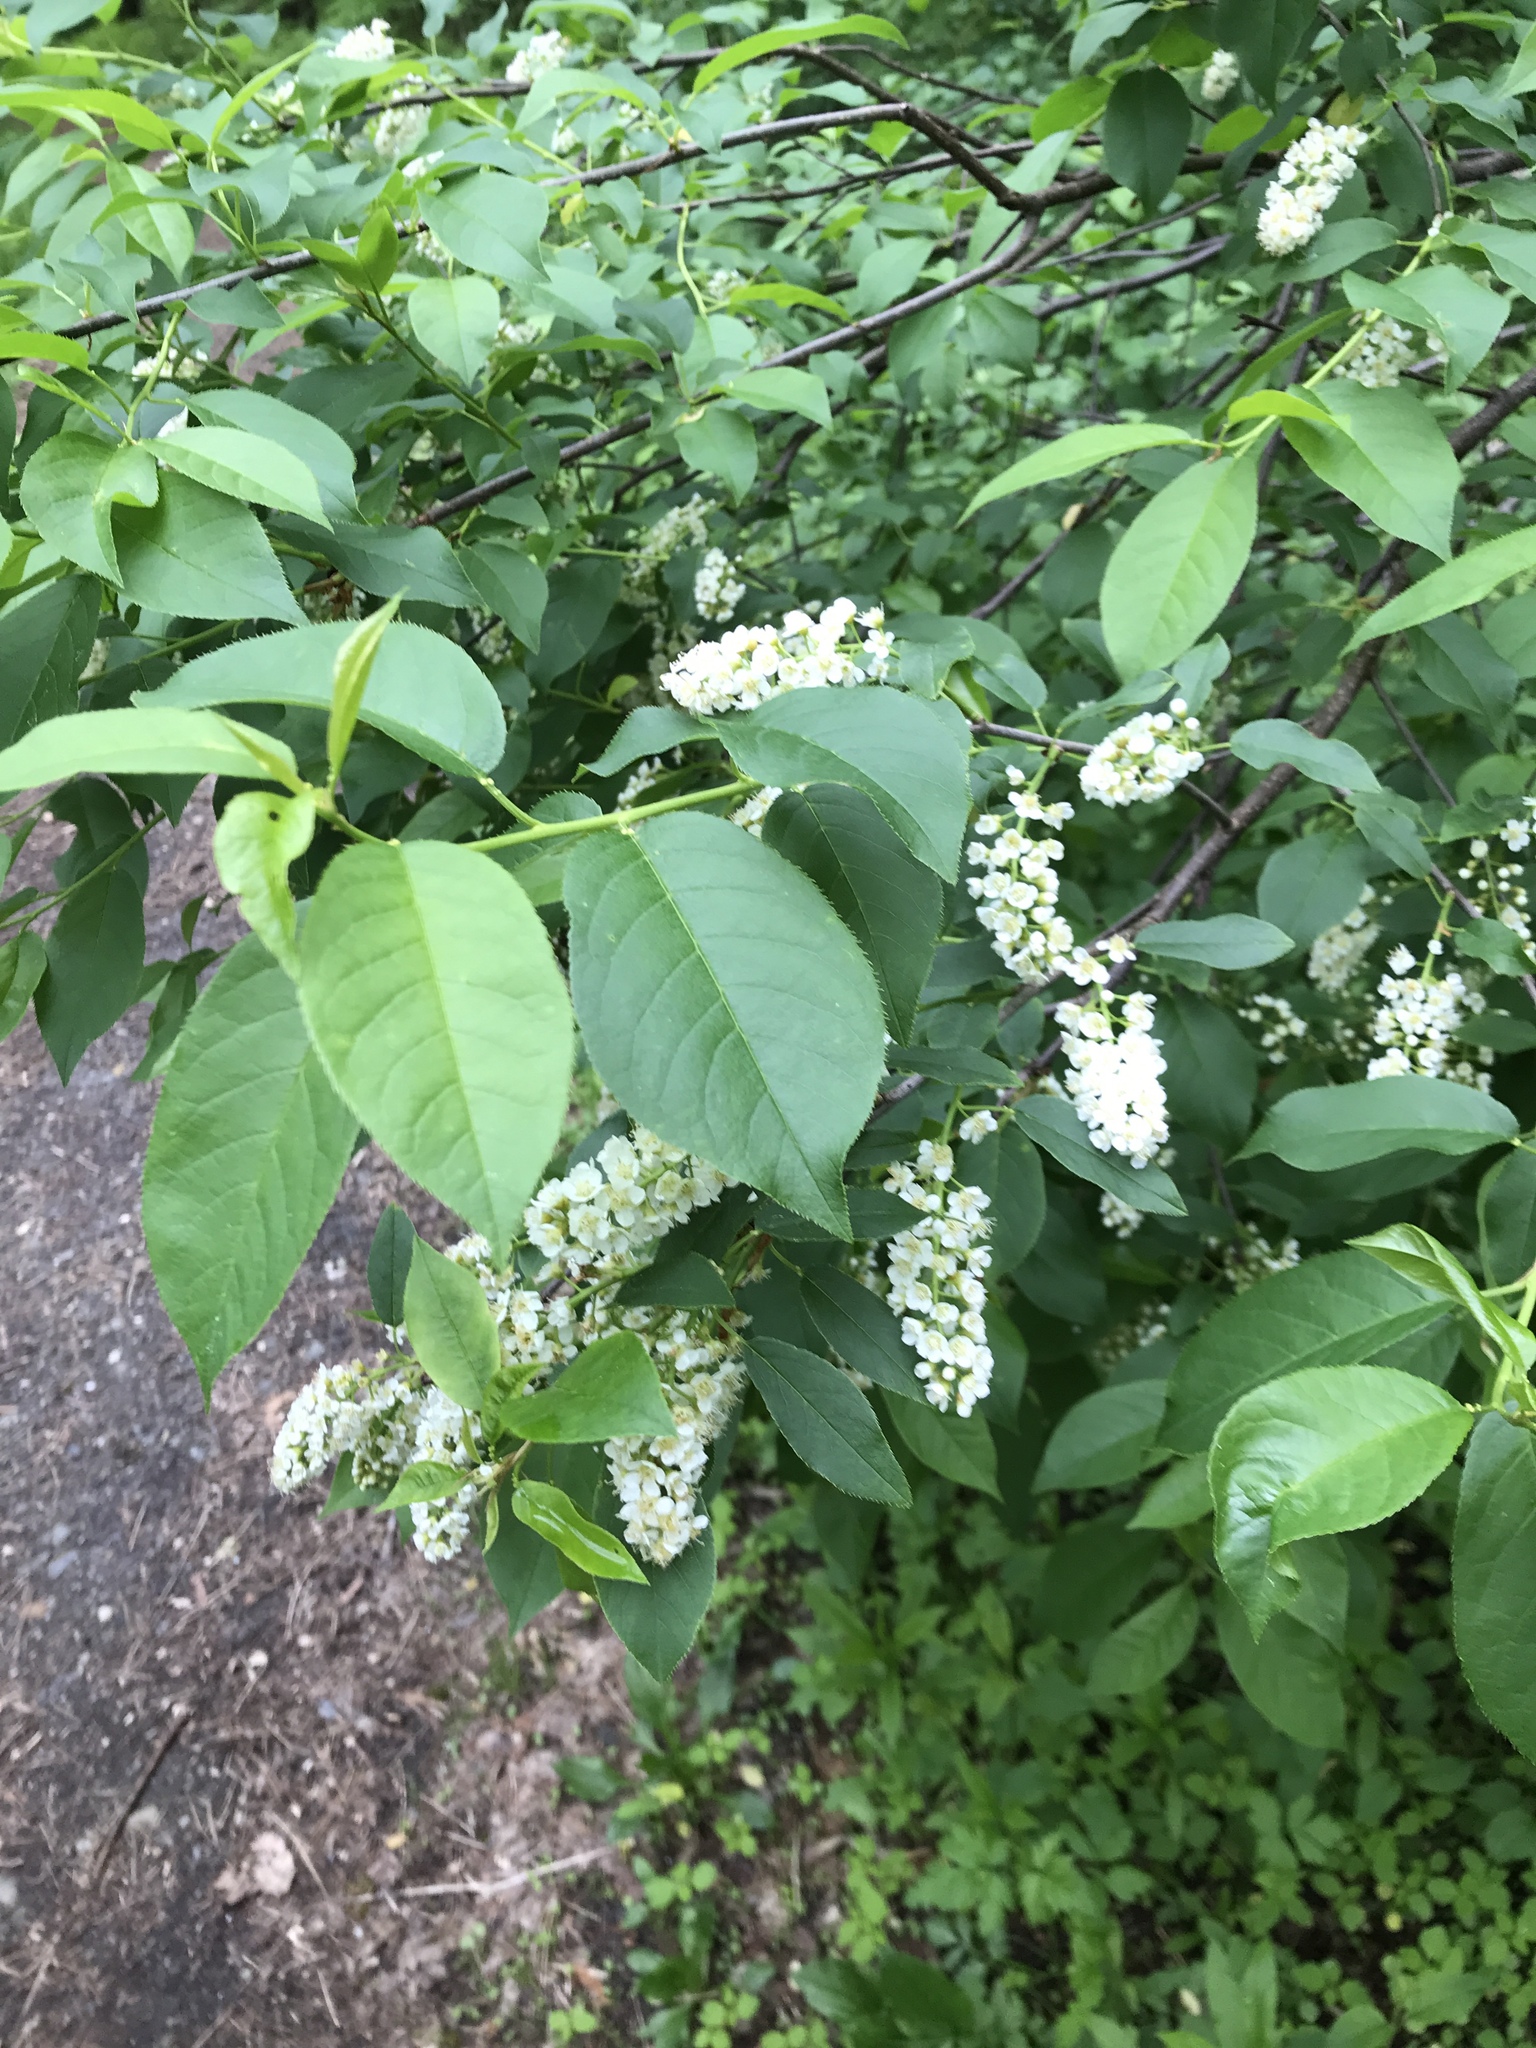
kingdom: Plantae
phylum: Tracheophyta
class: Magnoliopsida
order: Rosales
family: Rosaceae
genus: Prunus
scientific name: Prunus virginiana
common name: Chokecherry
